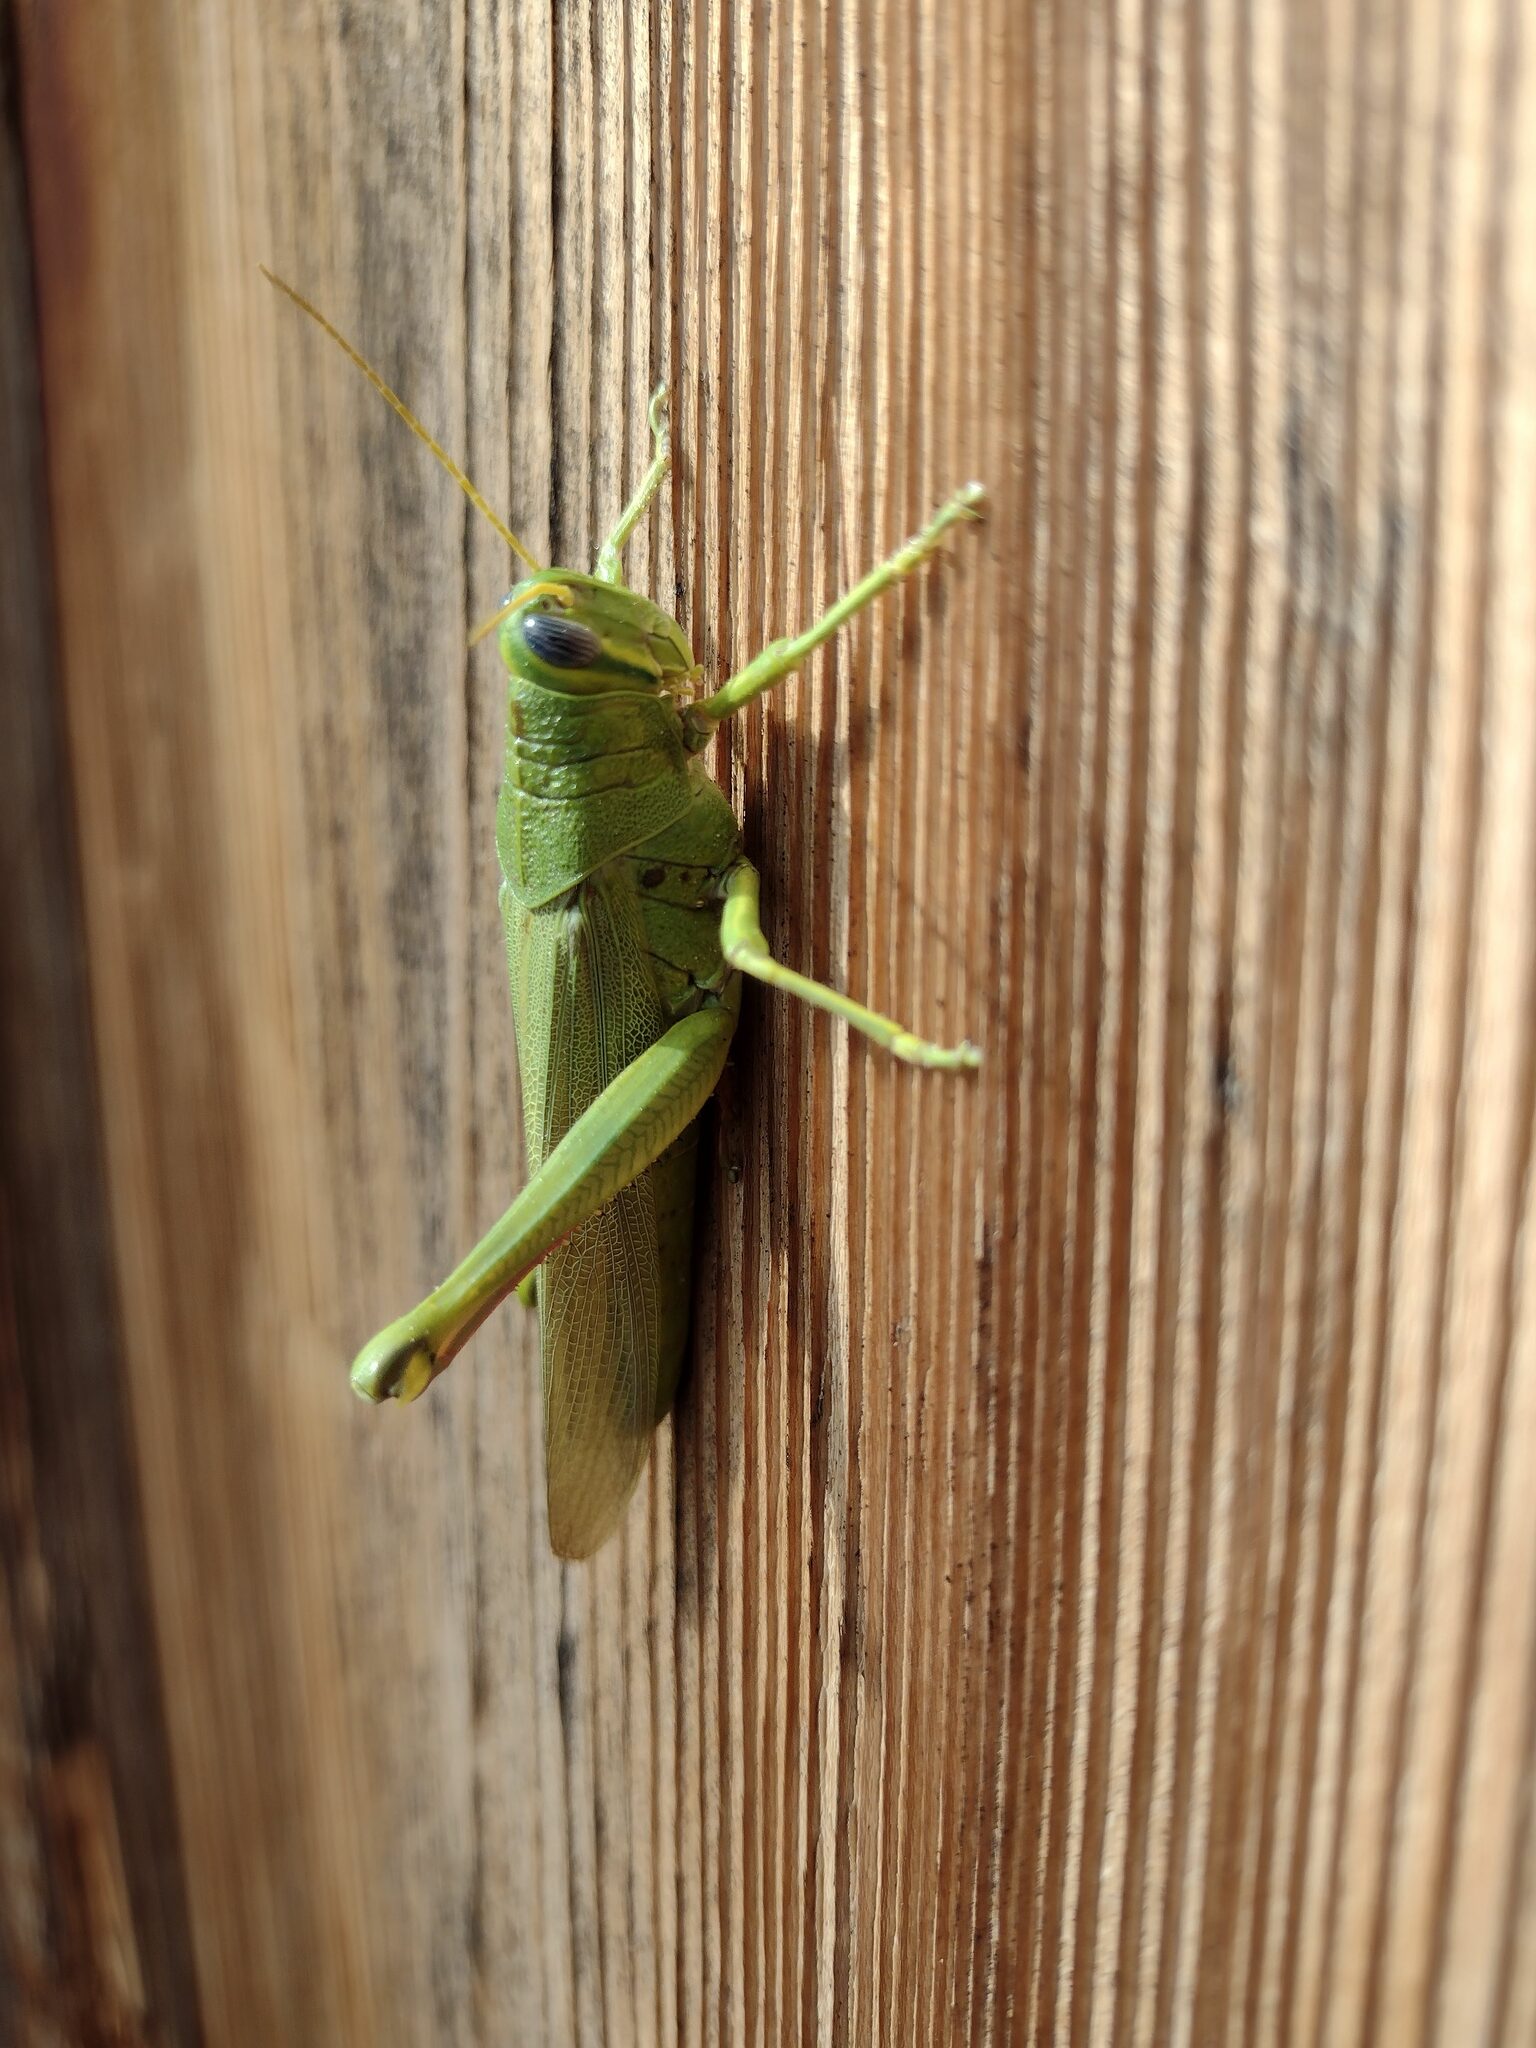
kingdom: Animalia
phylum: Arthropoda
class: Insecta
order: Orthoptera
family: Acrididae
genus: Schistocerca
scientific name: Schistocerca shoshone
